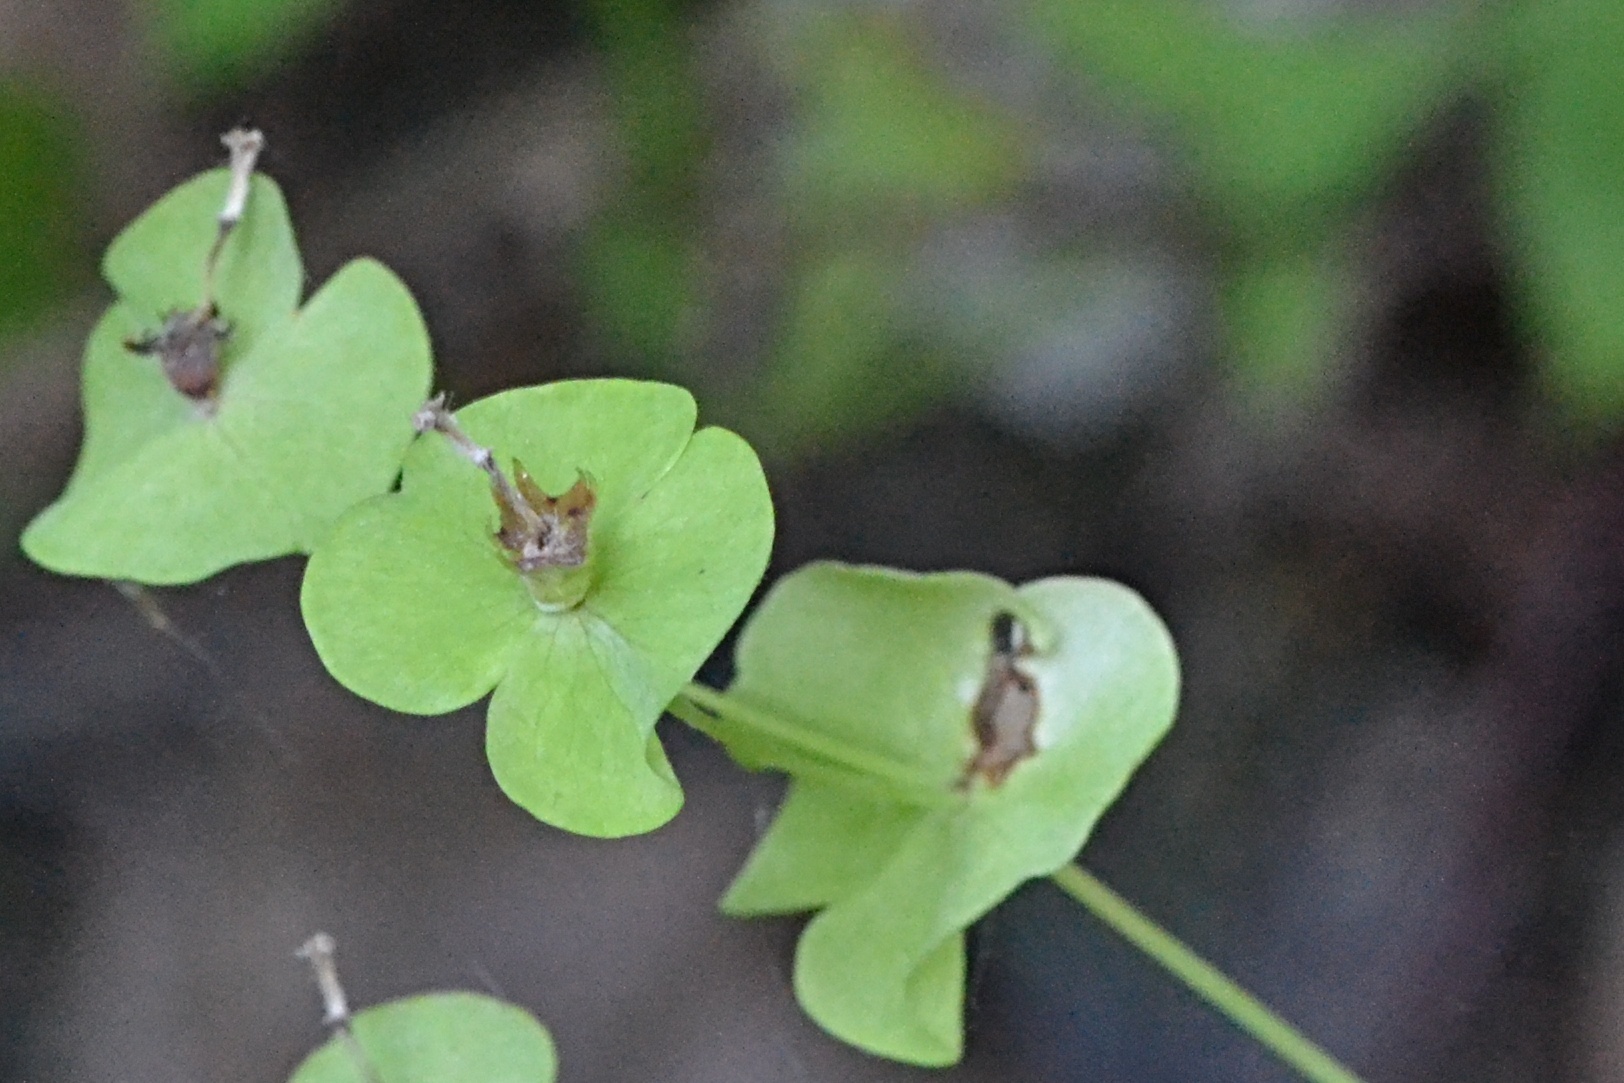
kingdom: Plantae
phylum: Tracheophyta
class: Magnoliopsida
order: Malpighiales
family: Euphorbiaceae
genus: Euphorbia
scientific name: Euphorbia amygdaloides
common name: Wood spurge
